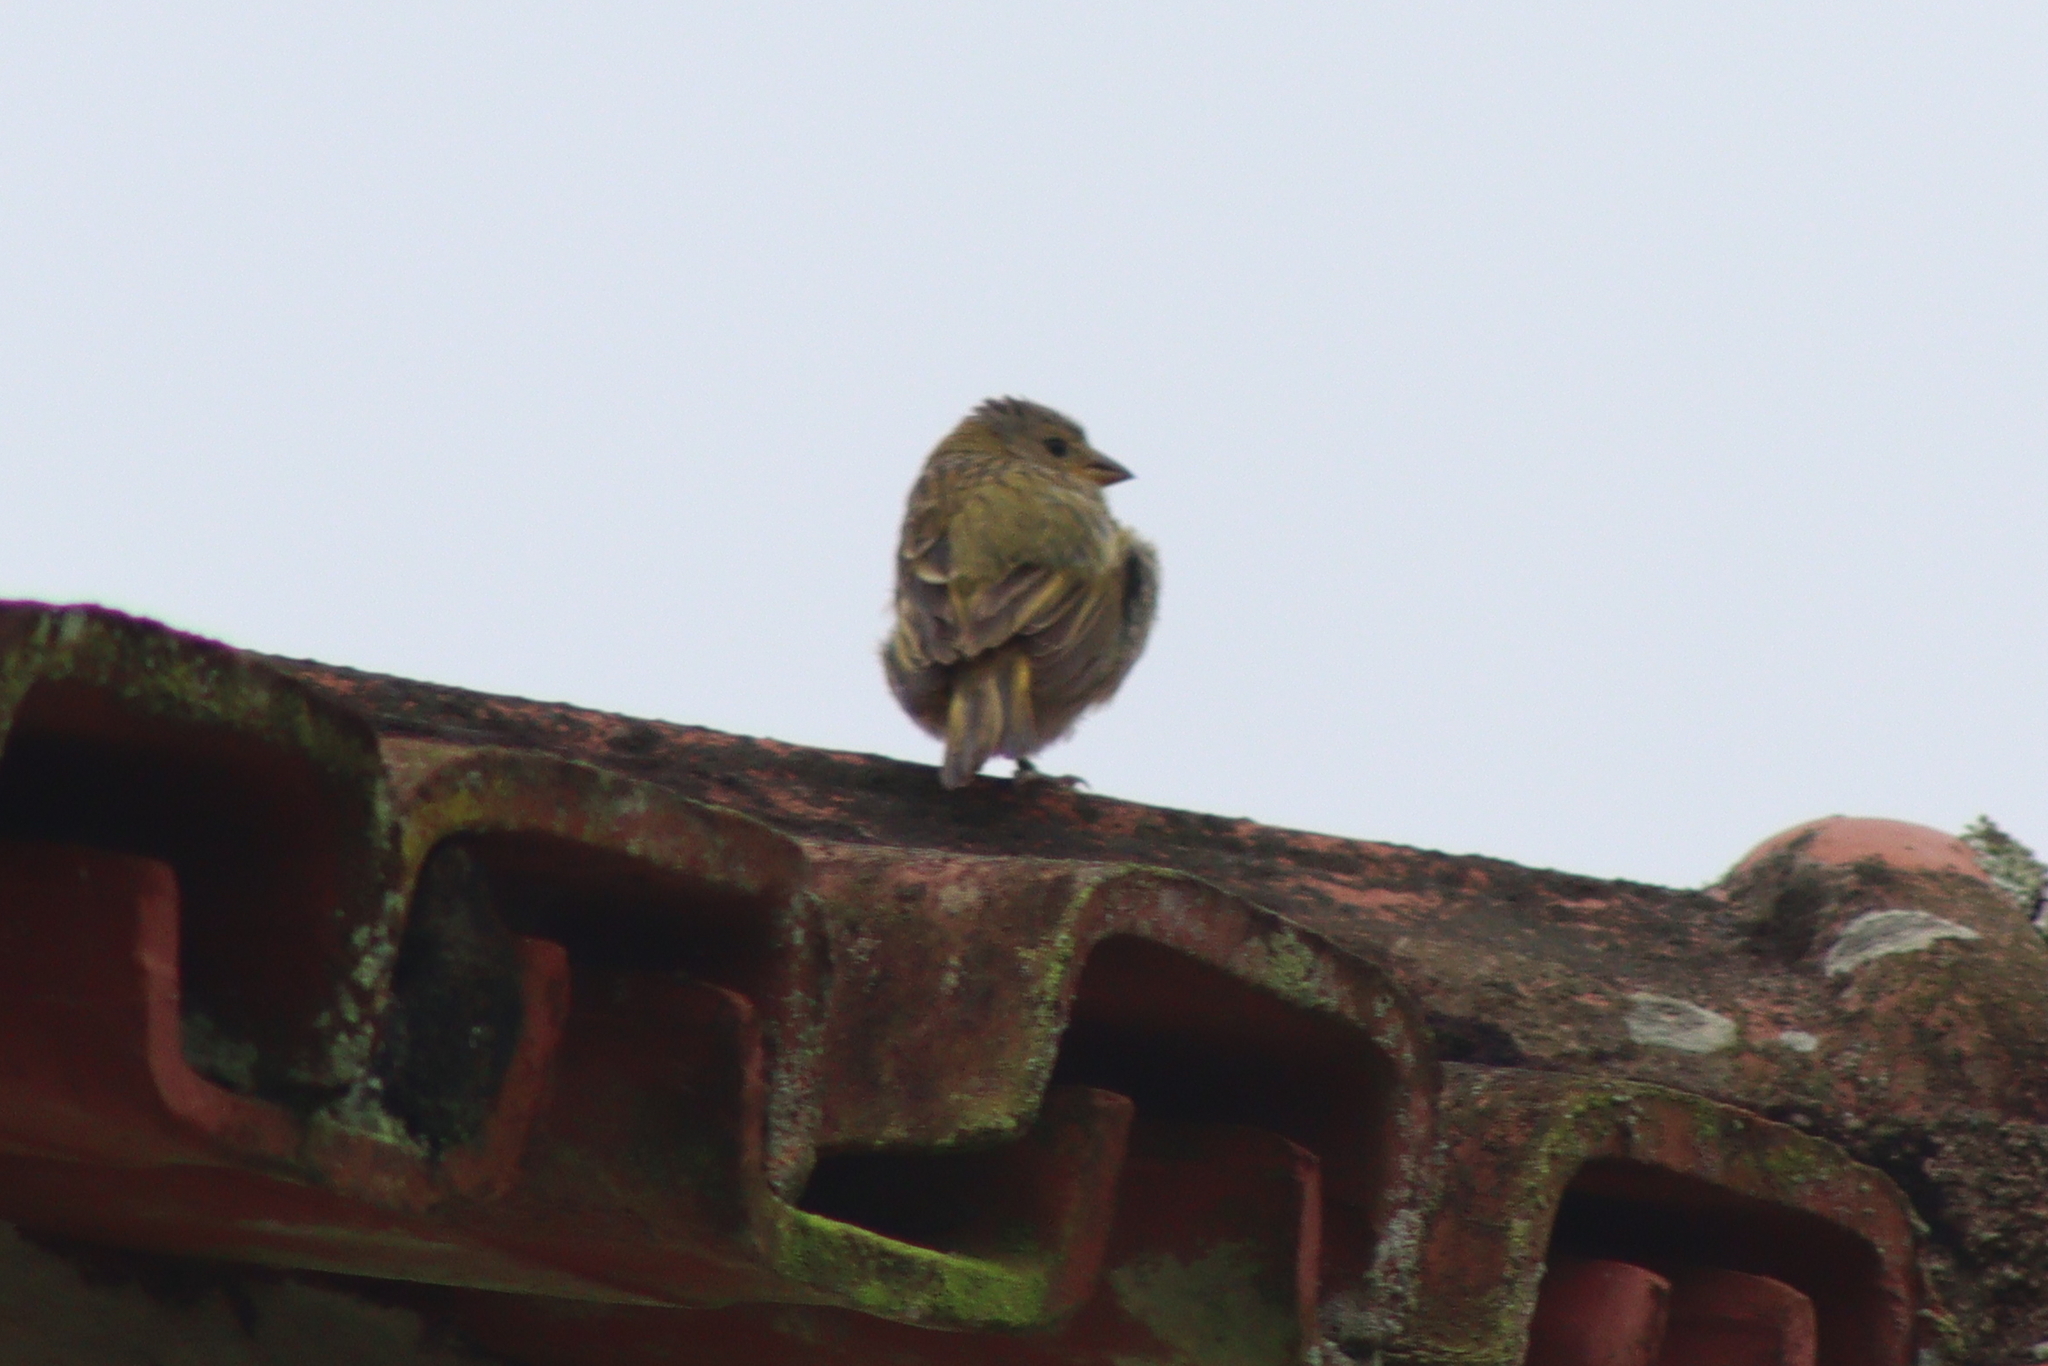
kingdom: Animalia
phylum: Chordata
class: Aves
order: Passeriformes
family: Thraupidae
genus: Sicalis
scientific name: Sicalis flaveola
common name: Saffron finch
